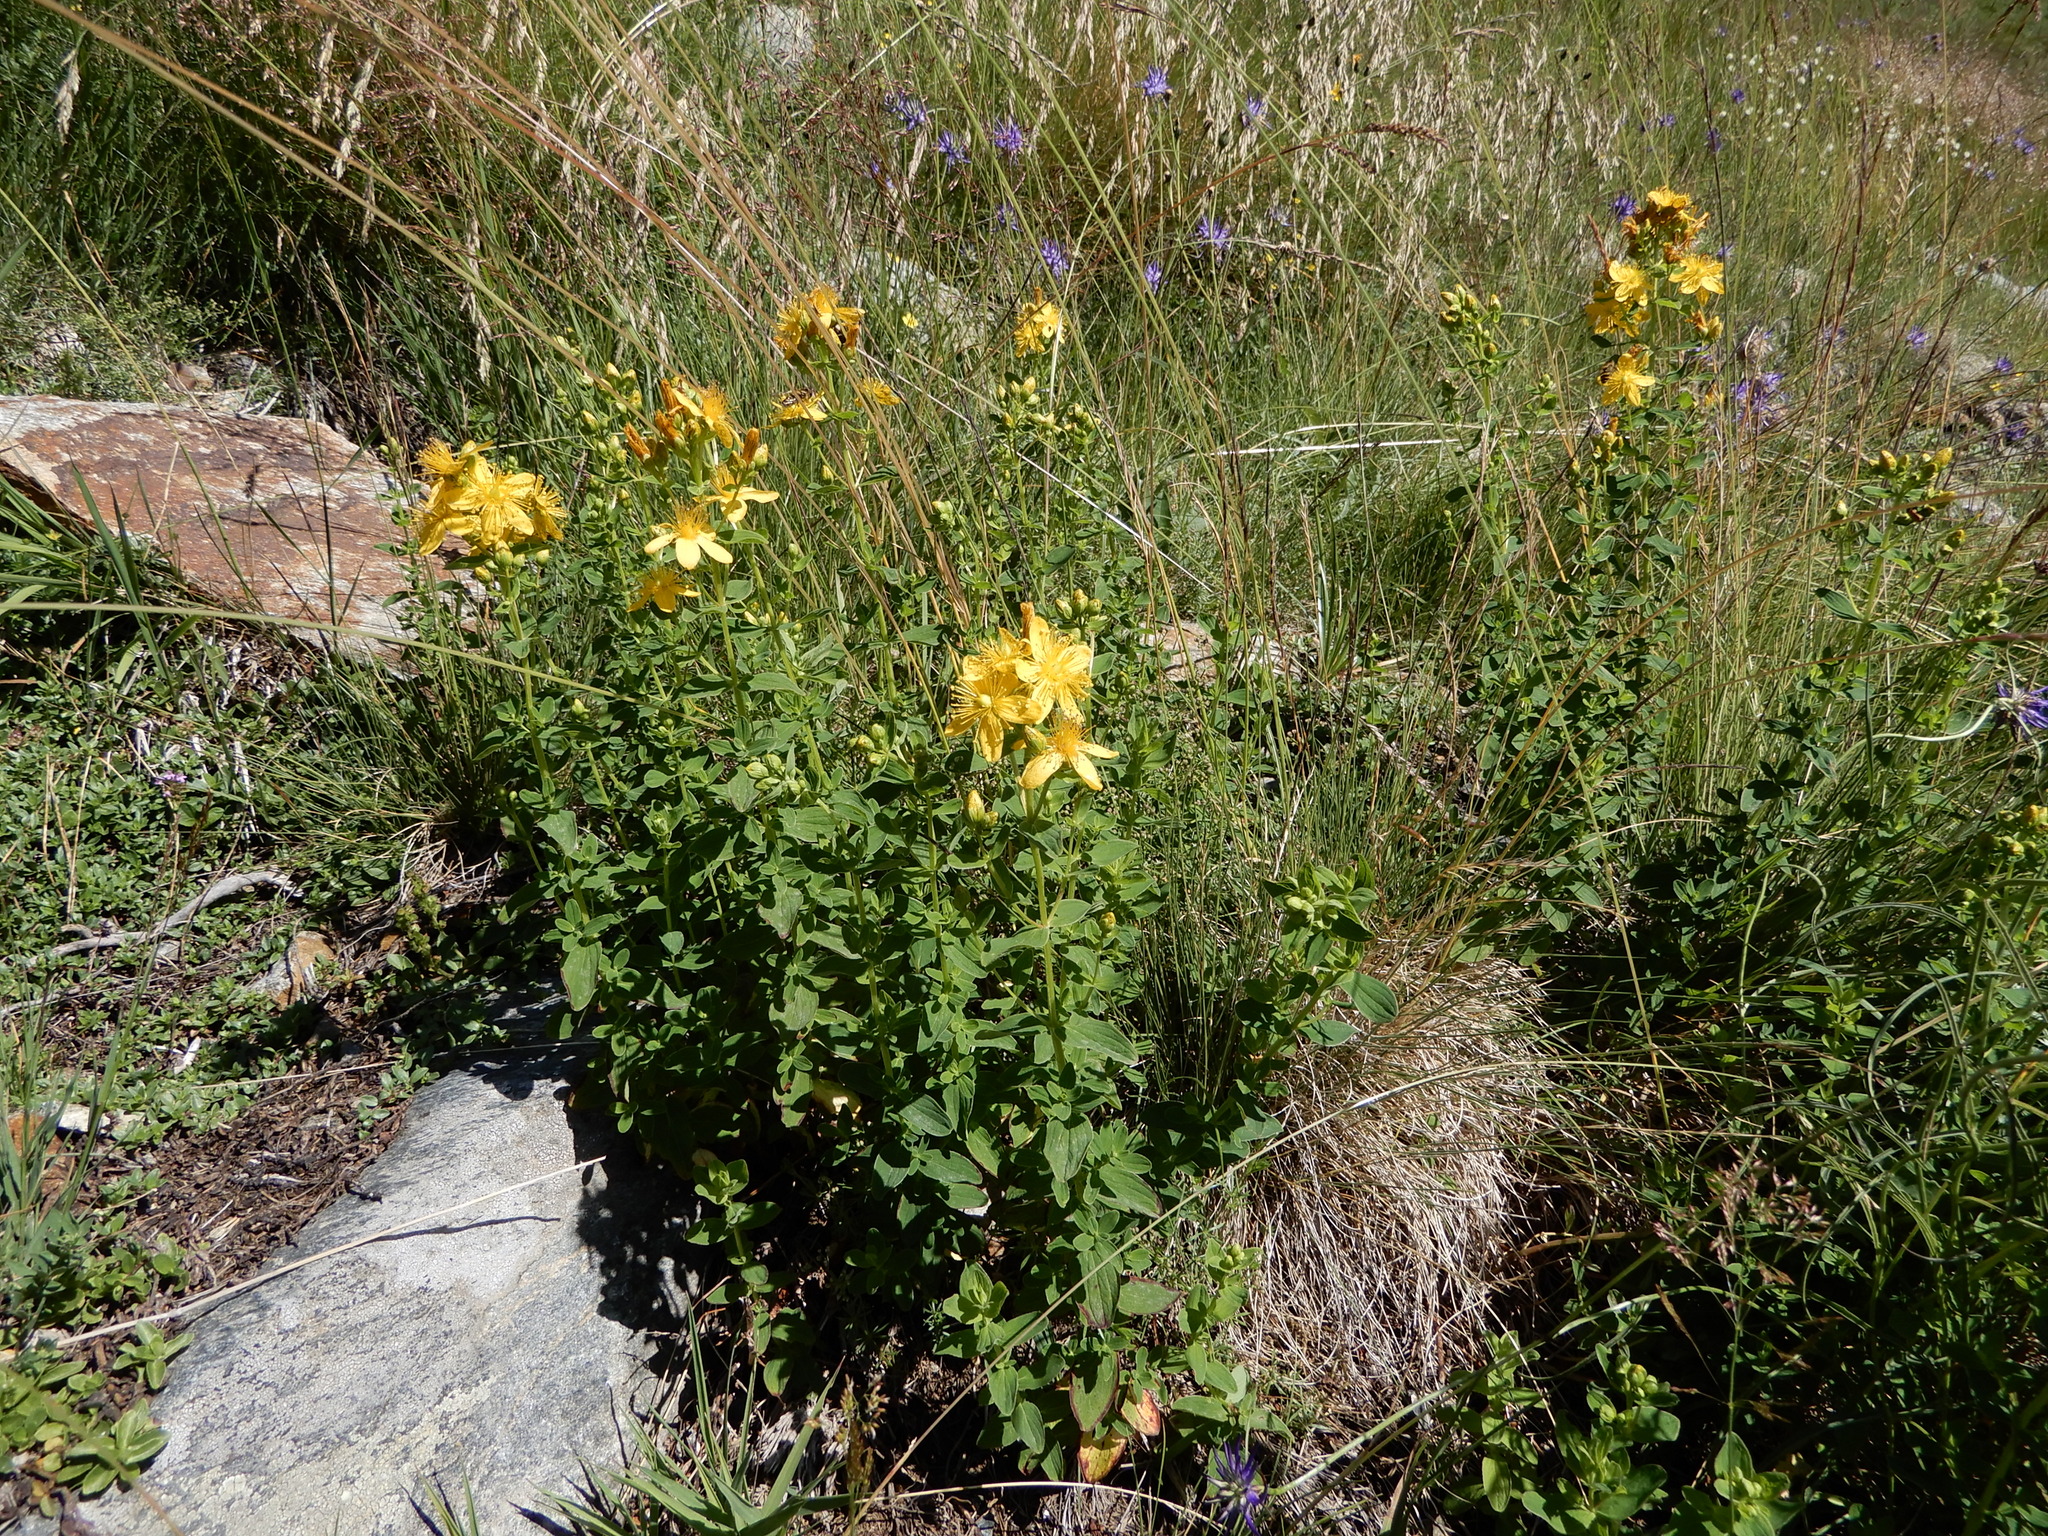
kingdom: Plantae
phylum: Tracheophyta
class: Magnoliopsida
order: Malpighiales
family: Hypericaceae
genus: Hypericum
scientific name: Hypericum maculatum
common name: Imperforate st. john's-wort
